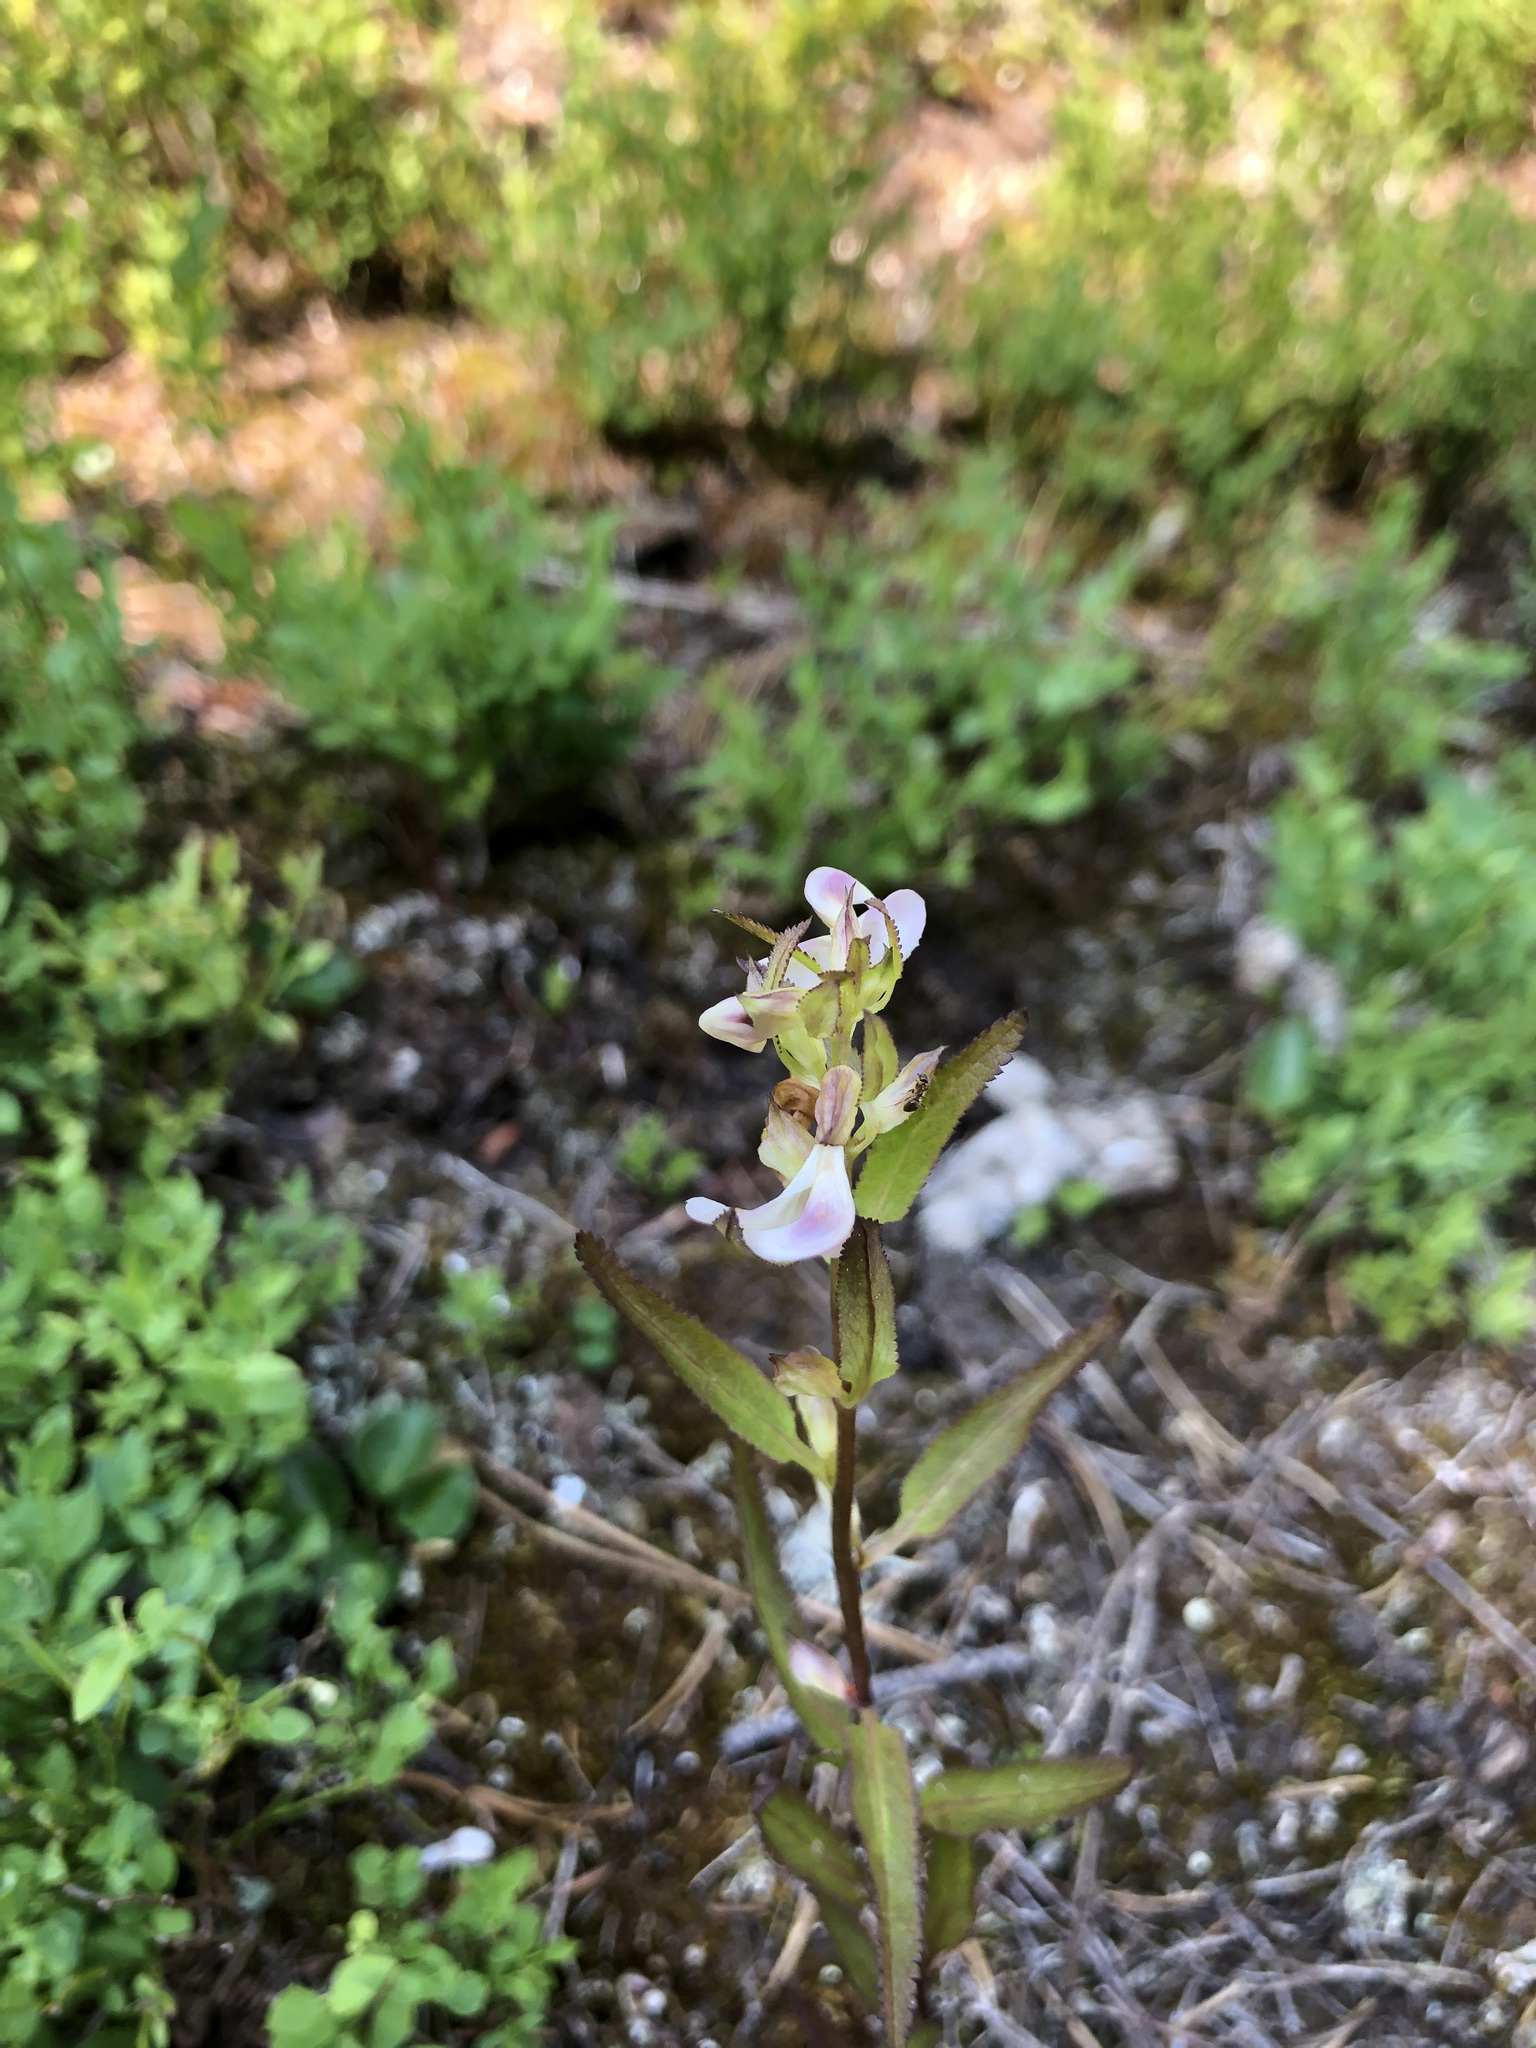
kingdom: Plantae
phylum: Tracheophyta
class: Magnoliopsida
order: Lamiales
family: Orobanchaceae
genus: Pedicularis
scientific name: Pedicularis racemosa
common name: Leafy lousewort
